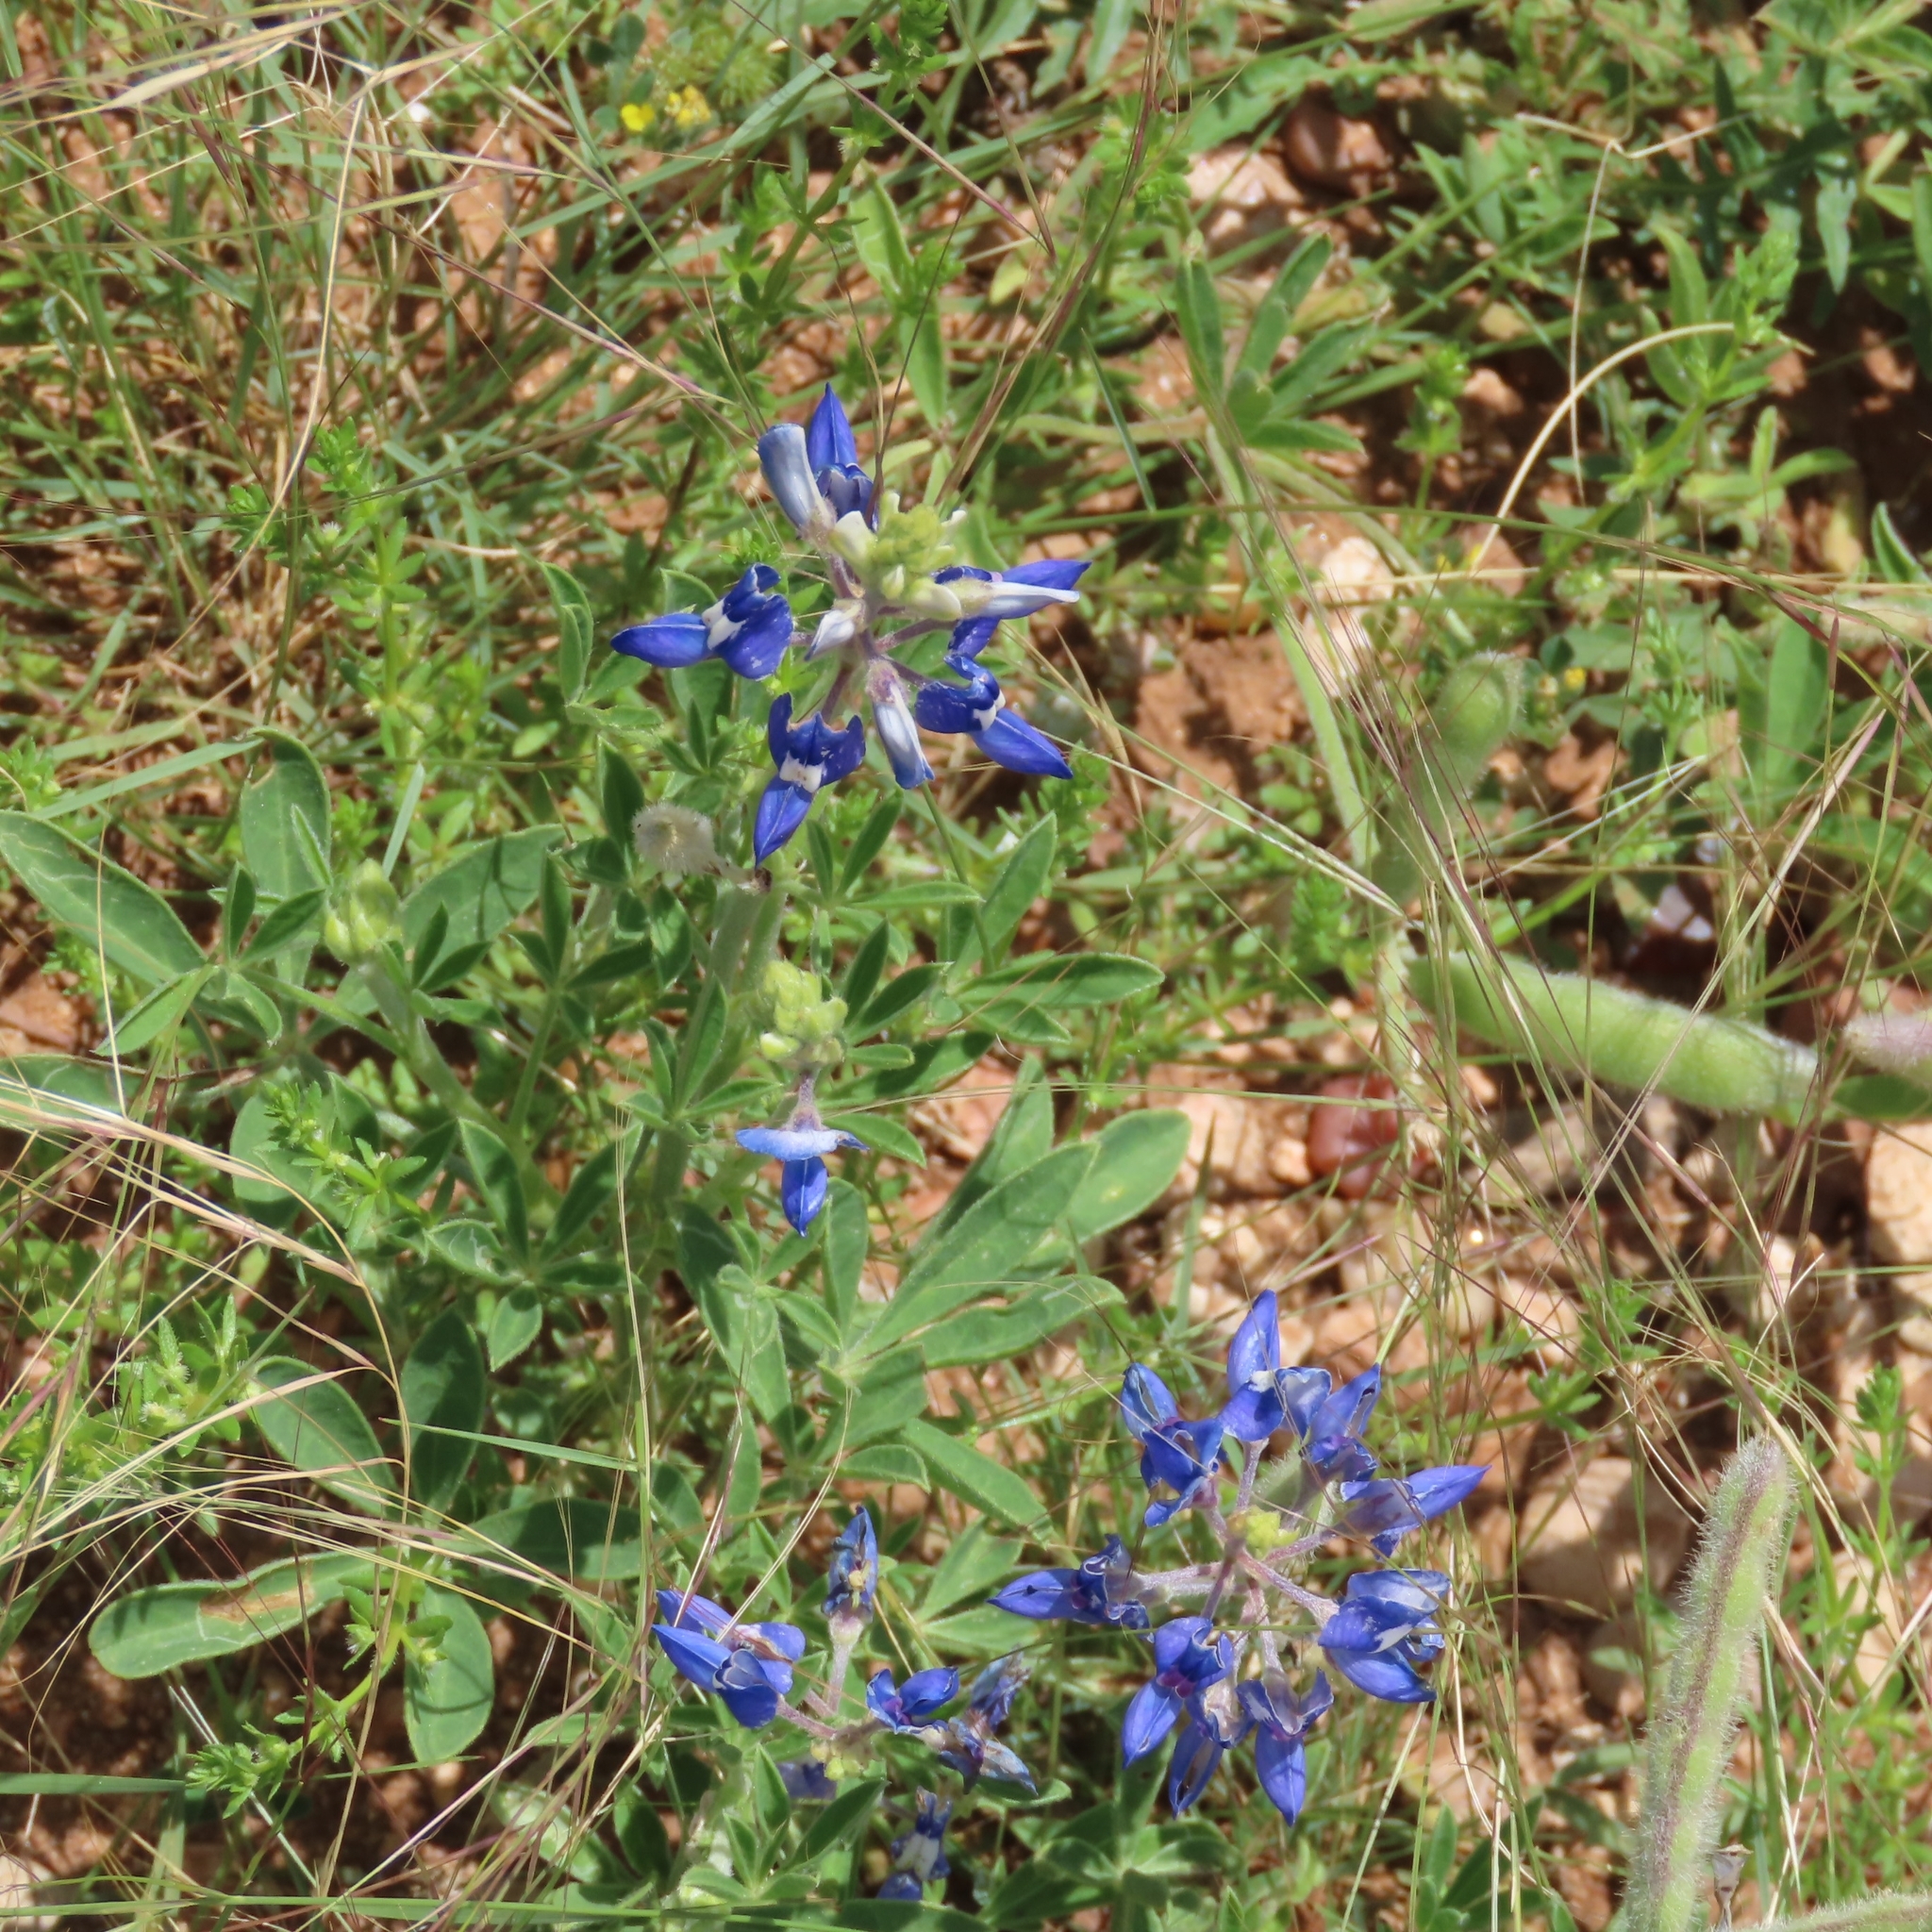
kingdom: Plantae
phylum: Tracheophyta
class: Magnoliopsida
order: Fabales
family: Fabaceae
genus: Lupinus
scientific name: Lupinus texensis
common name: Texas bluebonnet
